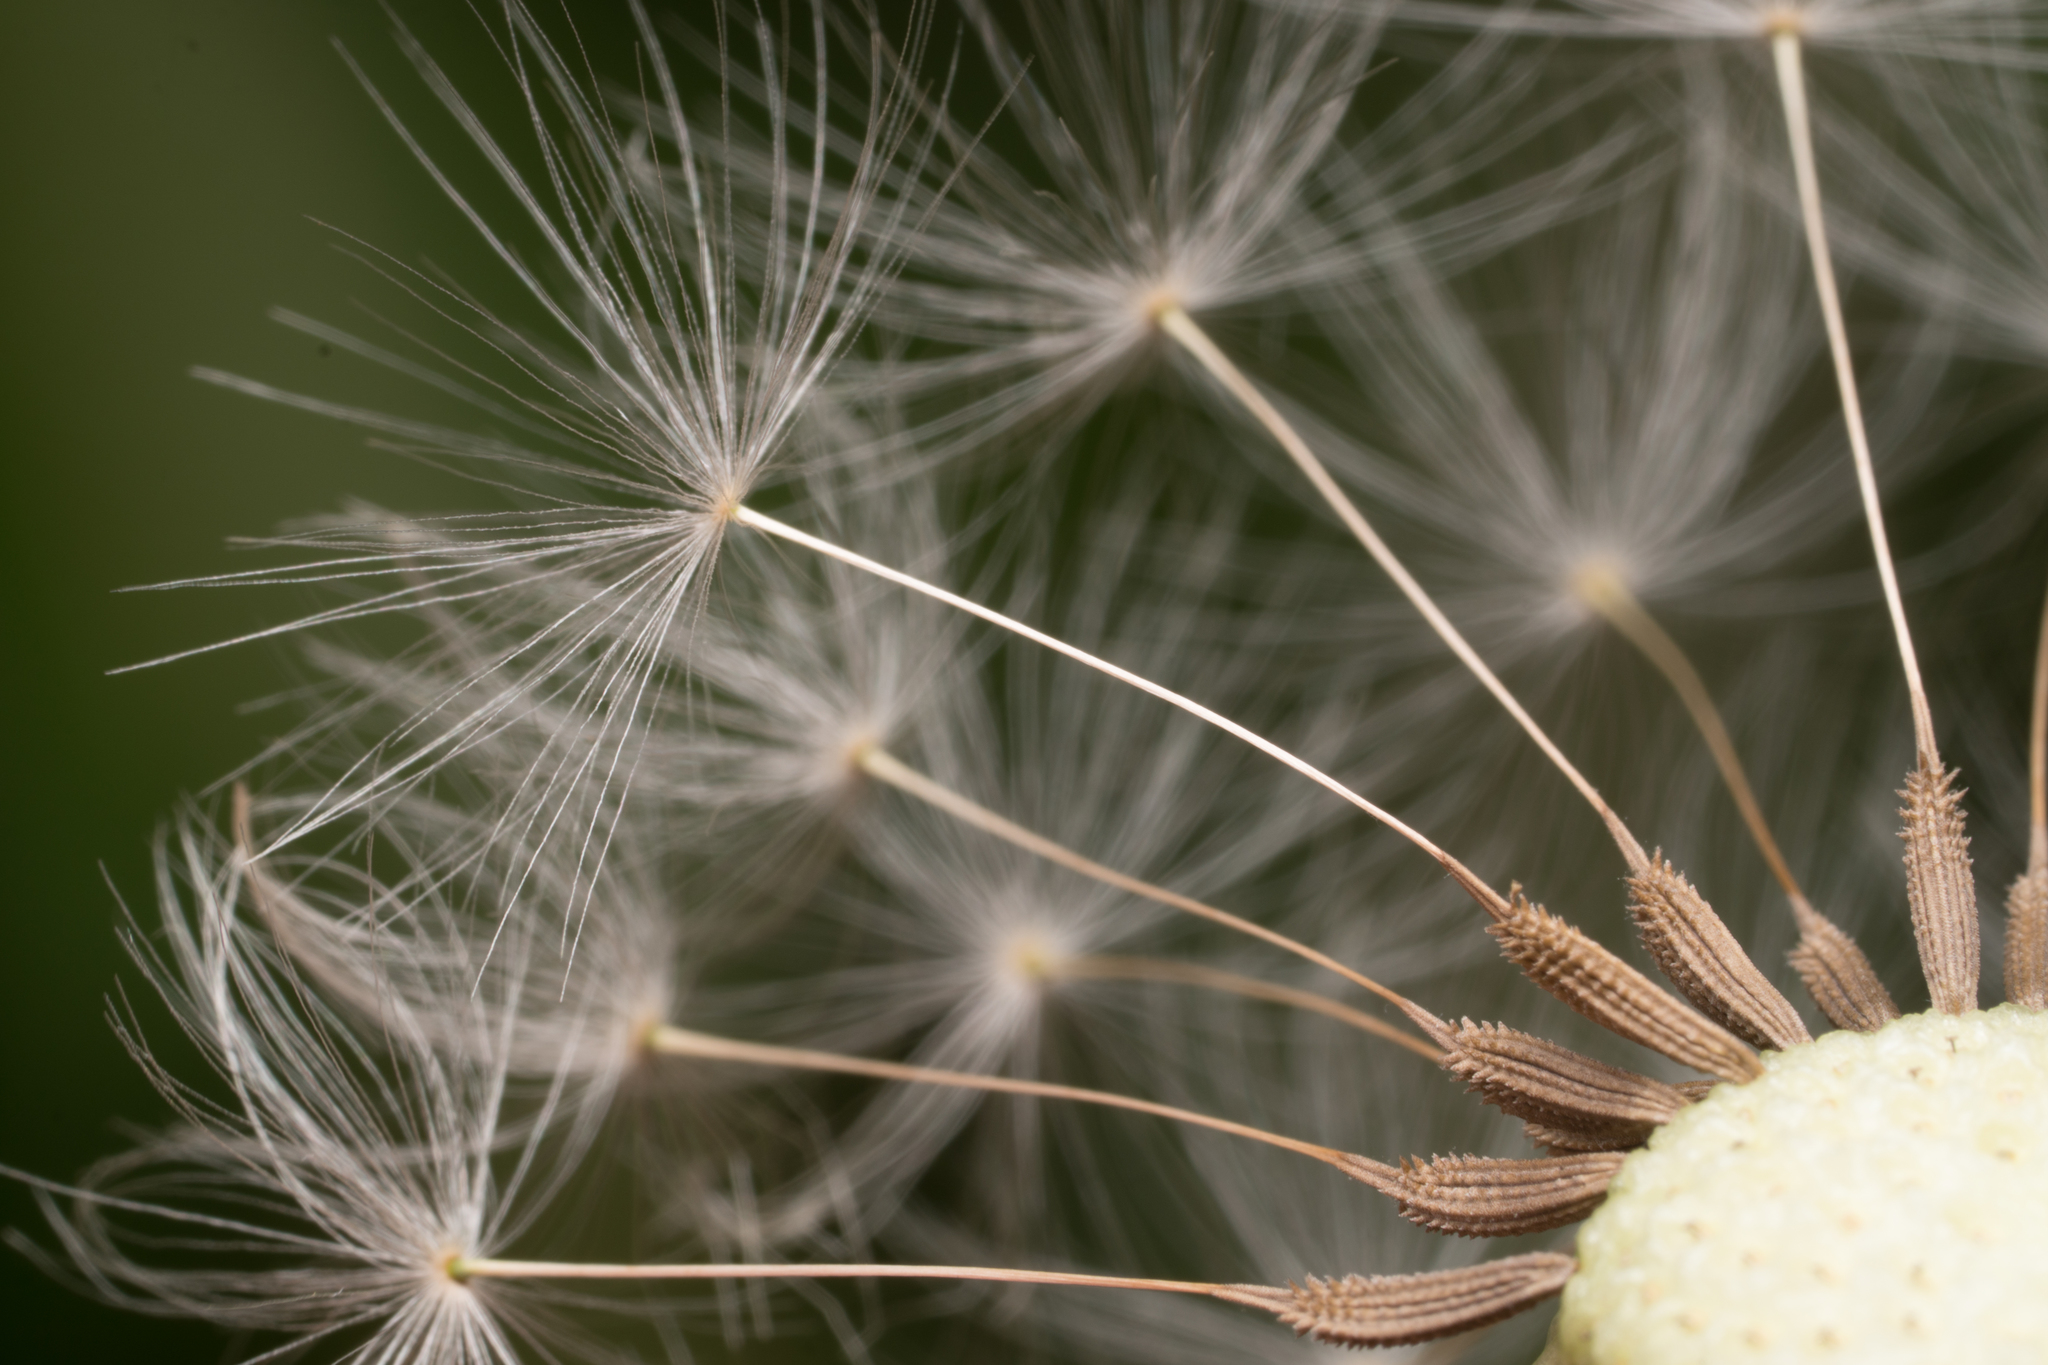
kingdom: Plantae
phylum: Tracheophyta
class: Magnoliopsida
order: Asterales
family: Asteraceae
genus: Taraxacum
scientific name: Taraxacum officinale
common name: Common dandelion
